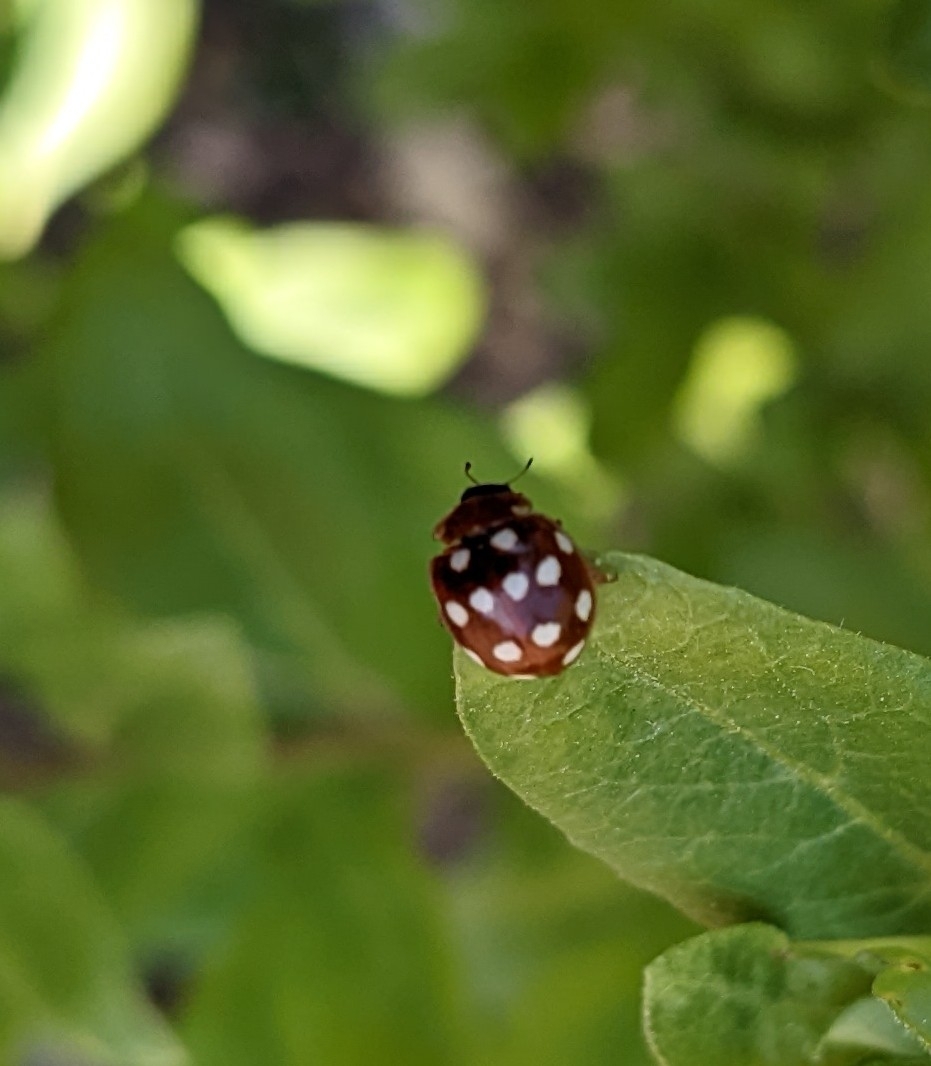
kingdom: Animalia
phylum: Arthropoda
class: Insecta
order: Coleoptera
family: Coccinellidae
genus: Calvia
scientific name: Calvia quatuordecimguttata
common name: Cream-spot ladybird
